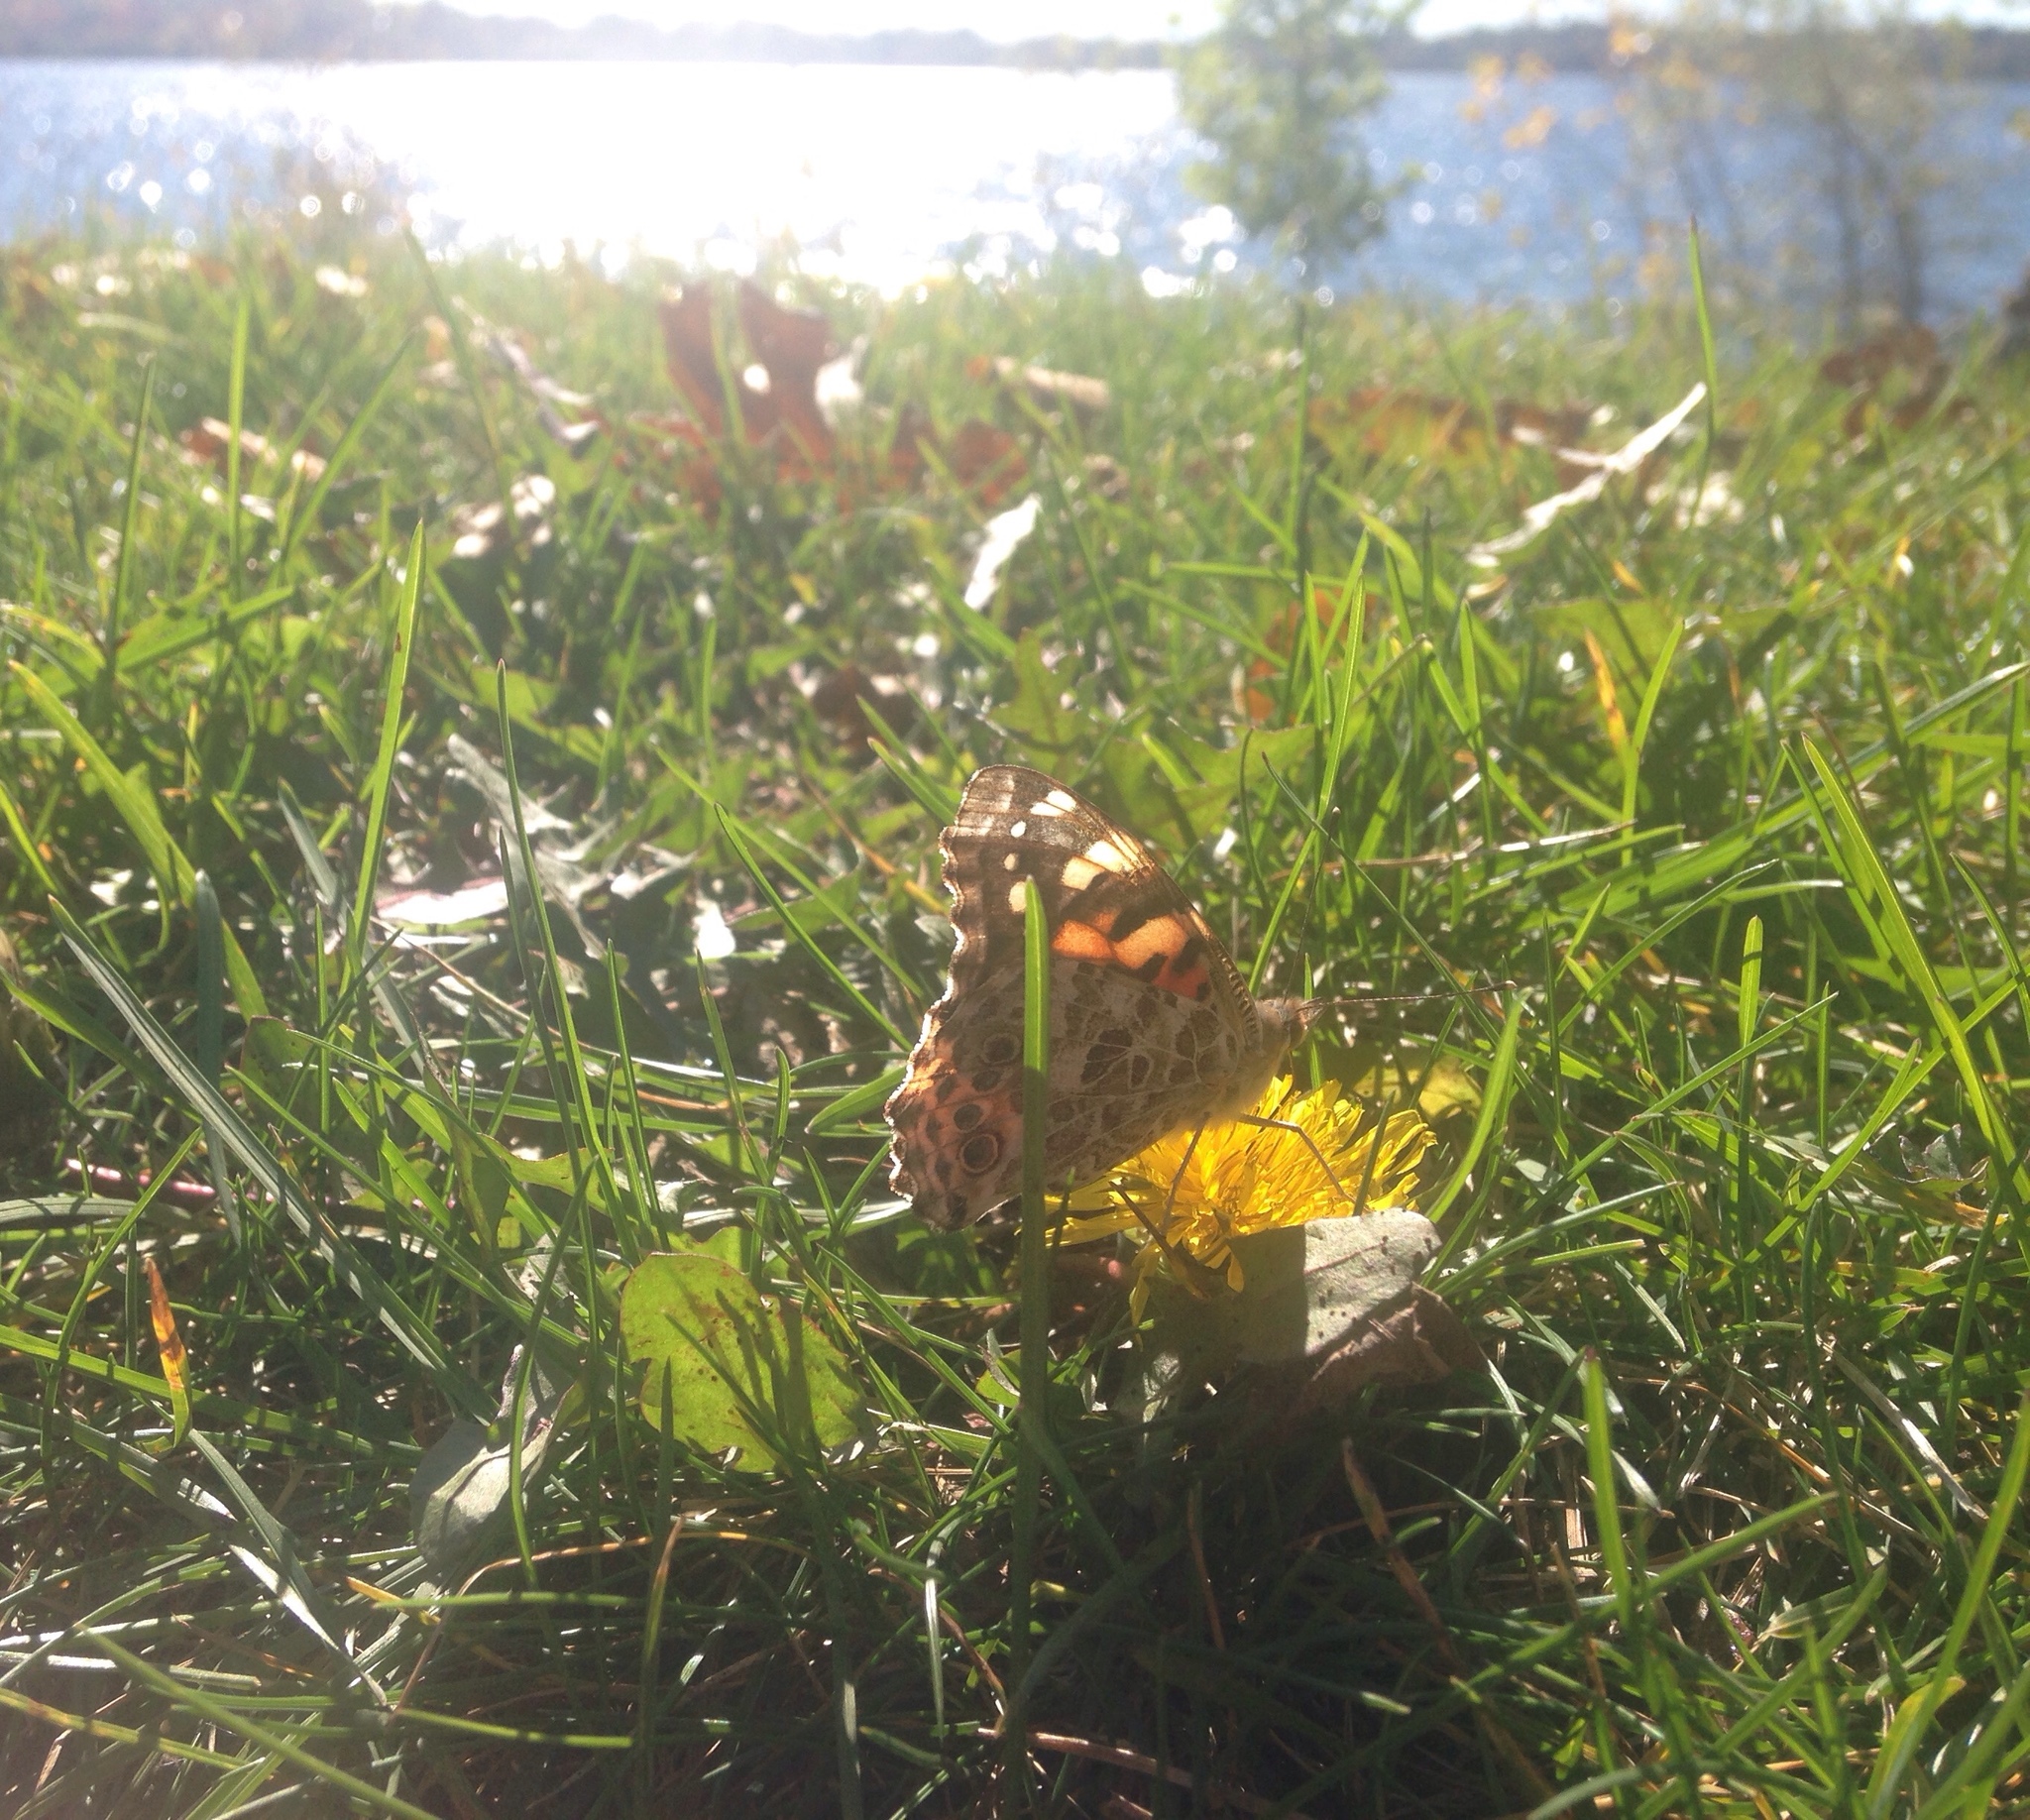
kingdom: Animalia
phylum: Arthropoda
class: Insecta
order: Lepidoptera
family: Nymphalidae
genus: Vanessa
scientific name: Vanessa cardui
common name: Painted lady
